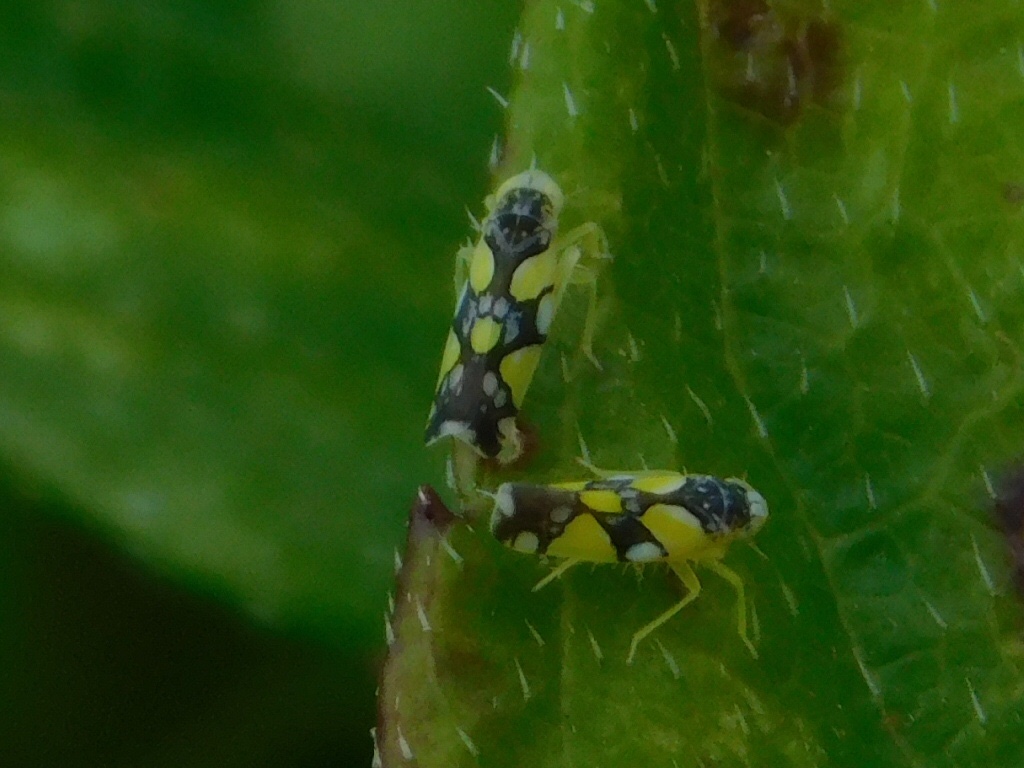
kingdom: Animalia
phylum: Arthropoda
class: Insecta
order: Hemiptera
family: Cicadellidae
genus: Protalebrella
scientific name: Protalebrella brasiliensis
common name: Brasilian leafhopper
